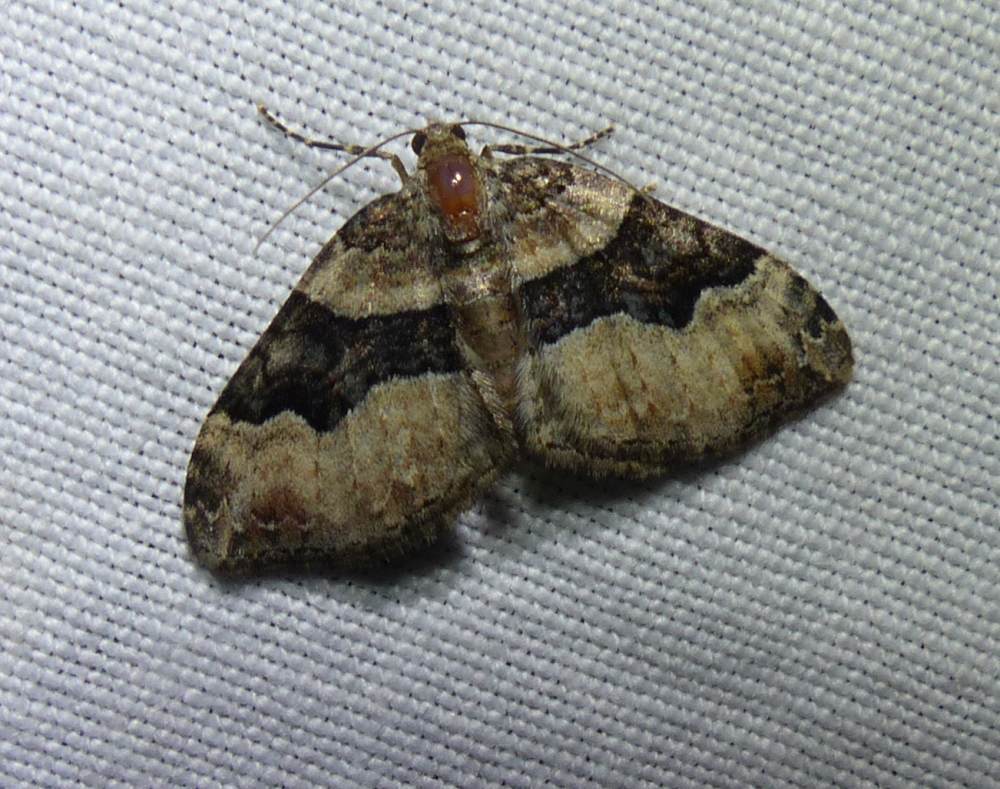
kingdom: Animalia
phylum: Arthropoda
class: Insecta
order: Lepidoptera
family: Geometridae
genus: Xanthorhoe
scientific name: Xanthorhoe lacustrata
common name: Toothed brown carpet
